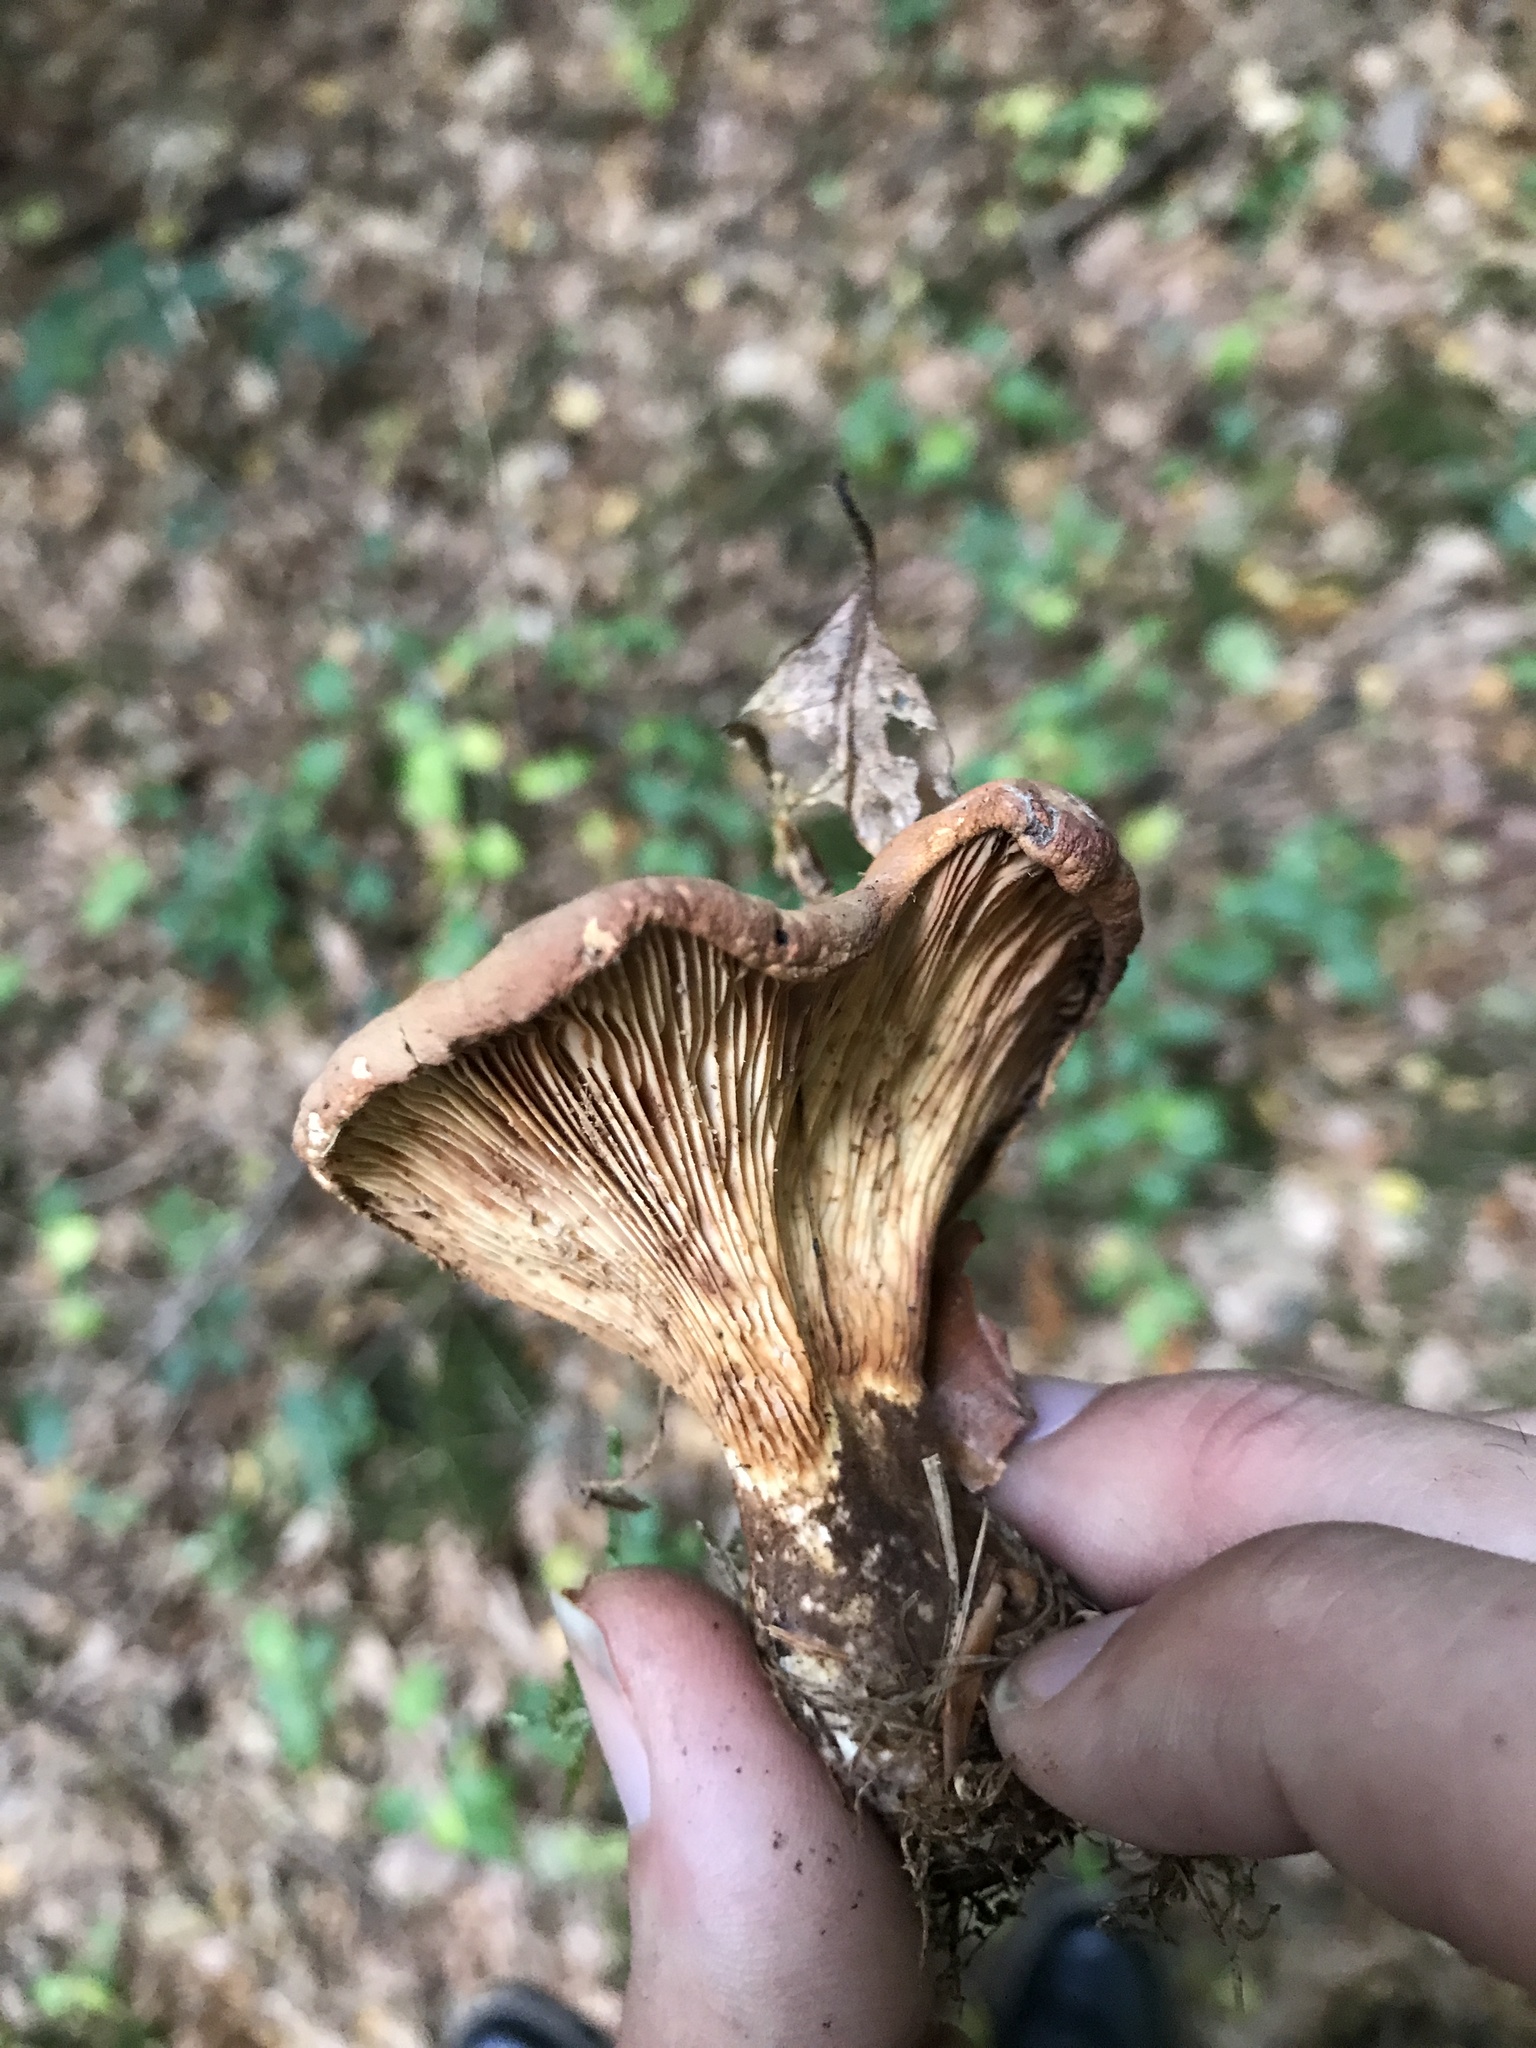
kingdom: Fungi
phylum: Basidiomycota
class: Agaricomycetes
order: Boletales
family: Tapinellaceae
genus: Tapinella
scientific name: Tapinella atrotomentosa
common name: Velvet rollrim
